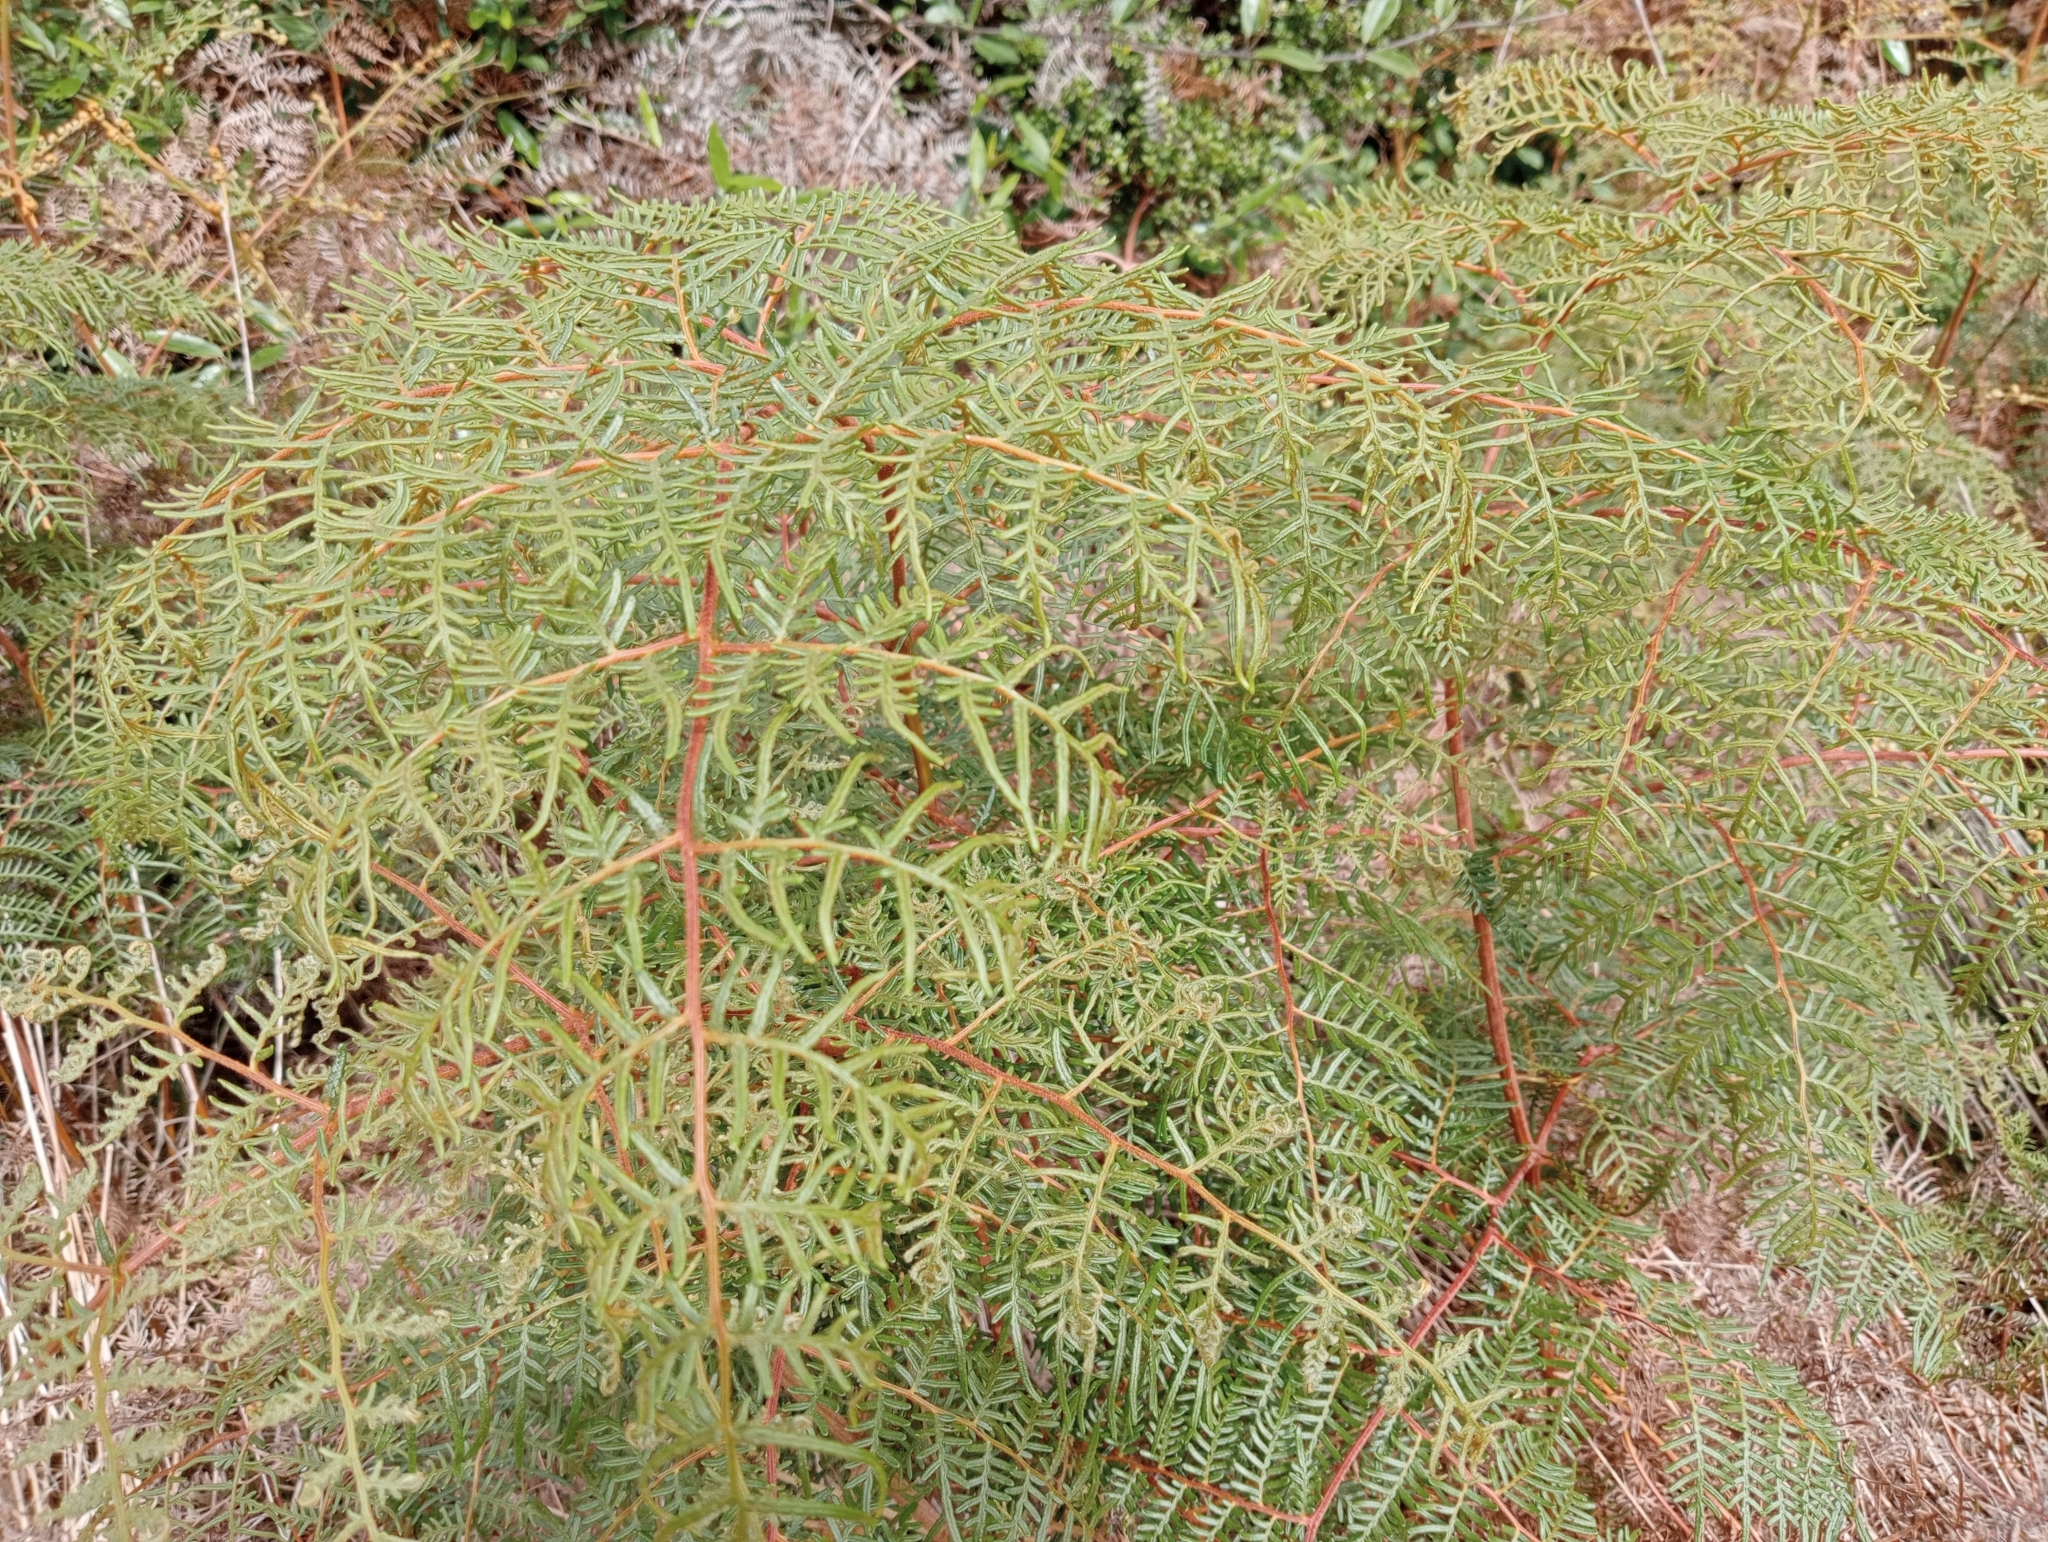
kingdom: Plantae
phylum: Tracheophyta
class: Polypodiopsida
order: Polypodiales
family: Dennstaedtiaceae
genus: Pteridium
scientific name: Pteridium esculentum
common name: Bracken fern
